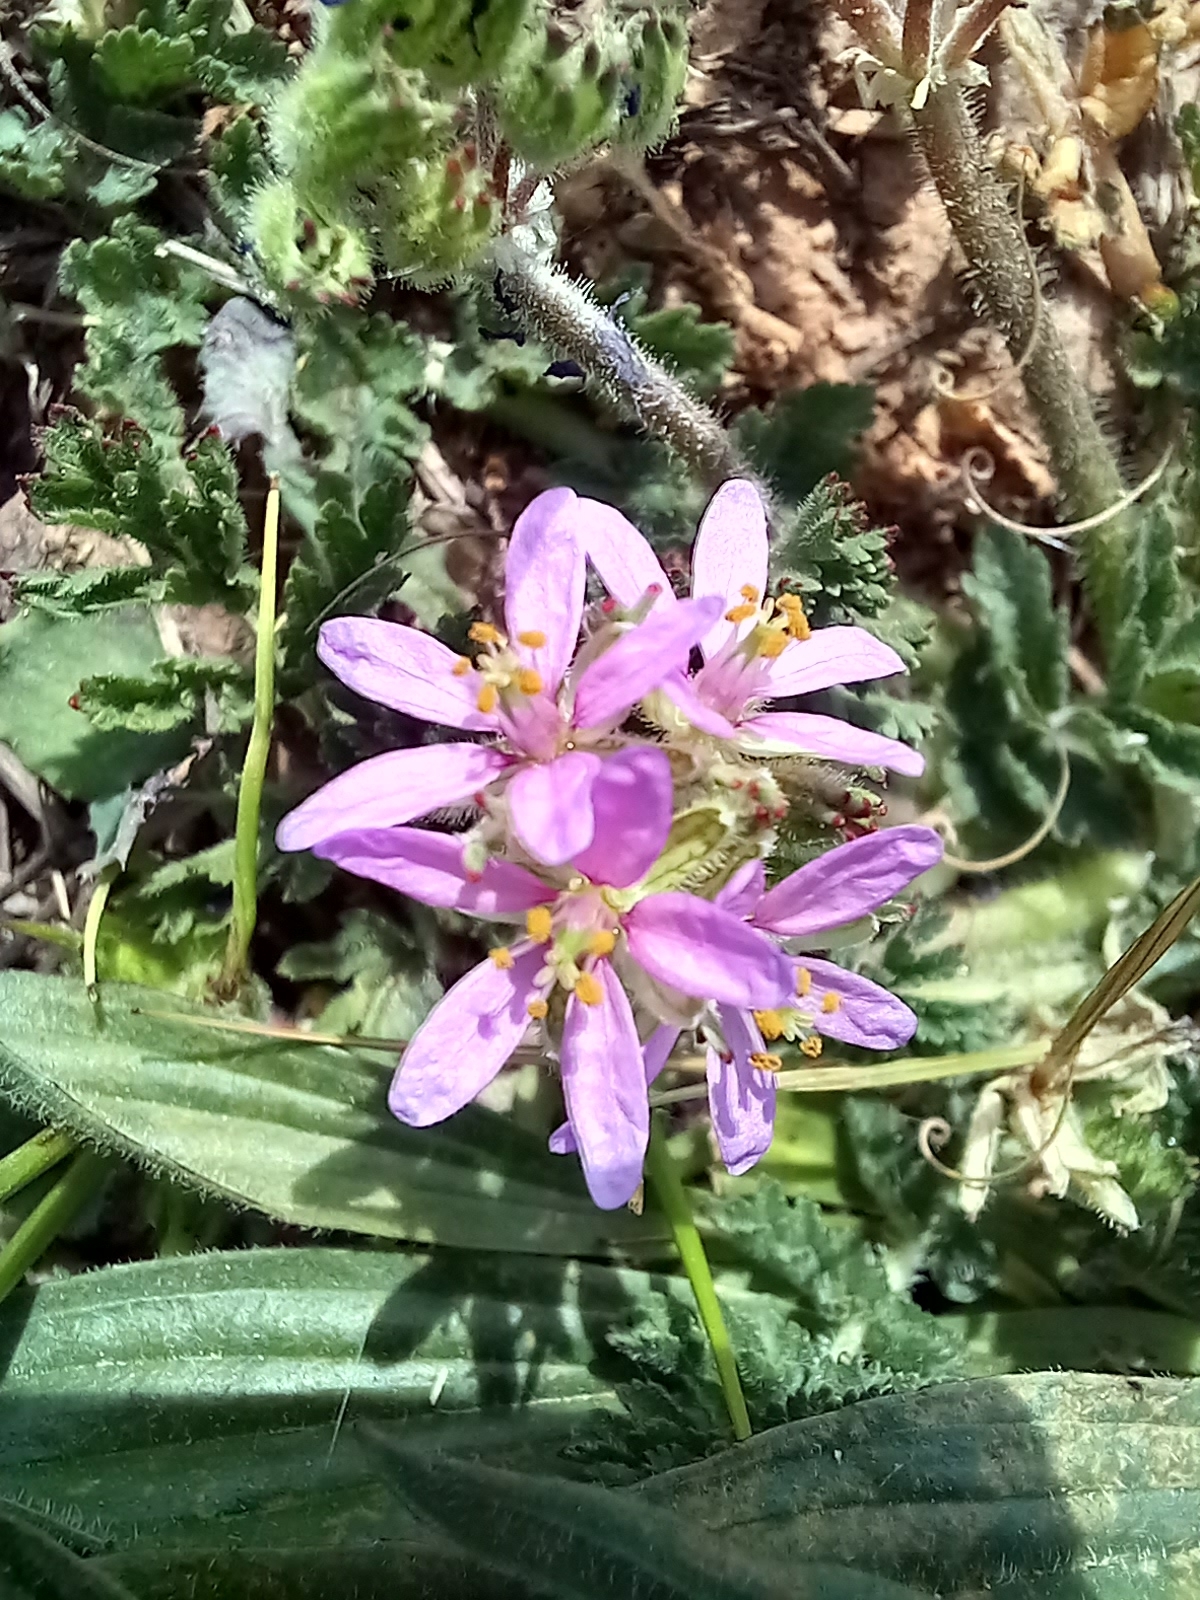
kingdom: Plantae
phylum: Tracheophyta
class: Magnoliopsida
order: Geraniales
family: Geraniaceae
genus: Erodium
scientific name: Erodium moschatum
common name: Musk stork's-bill
